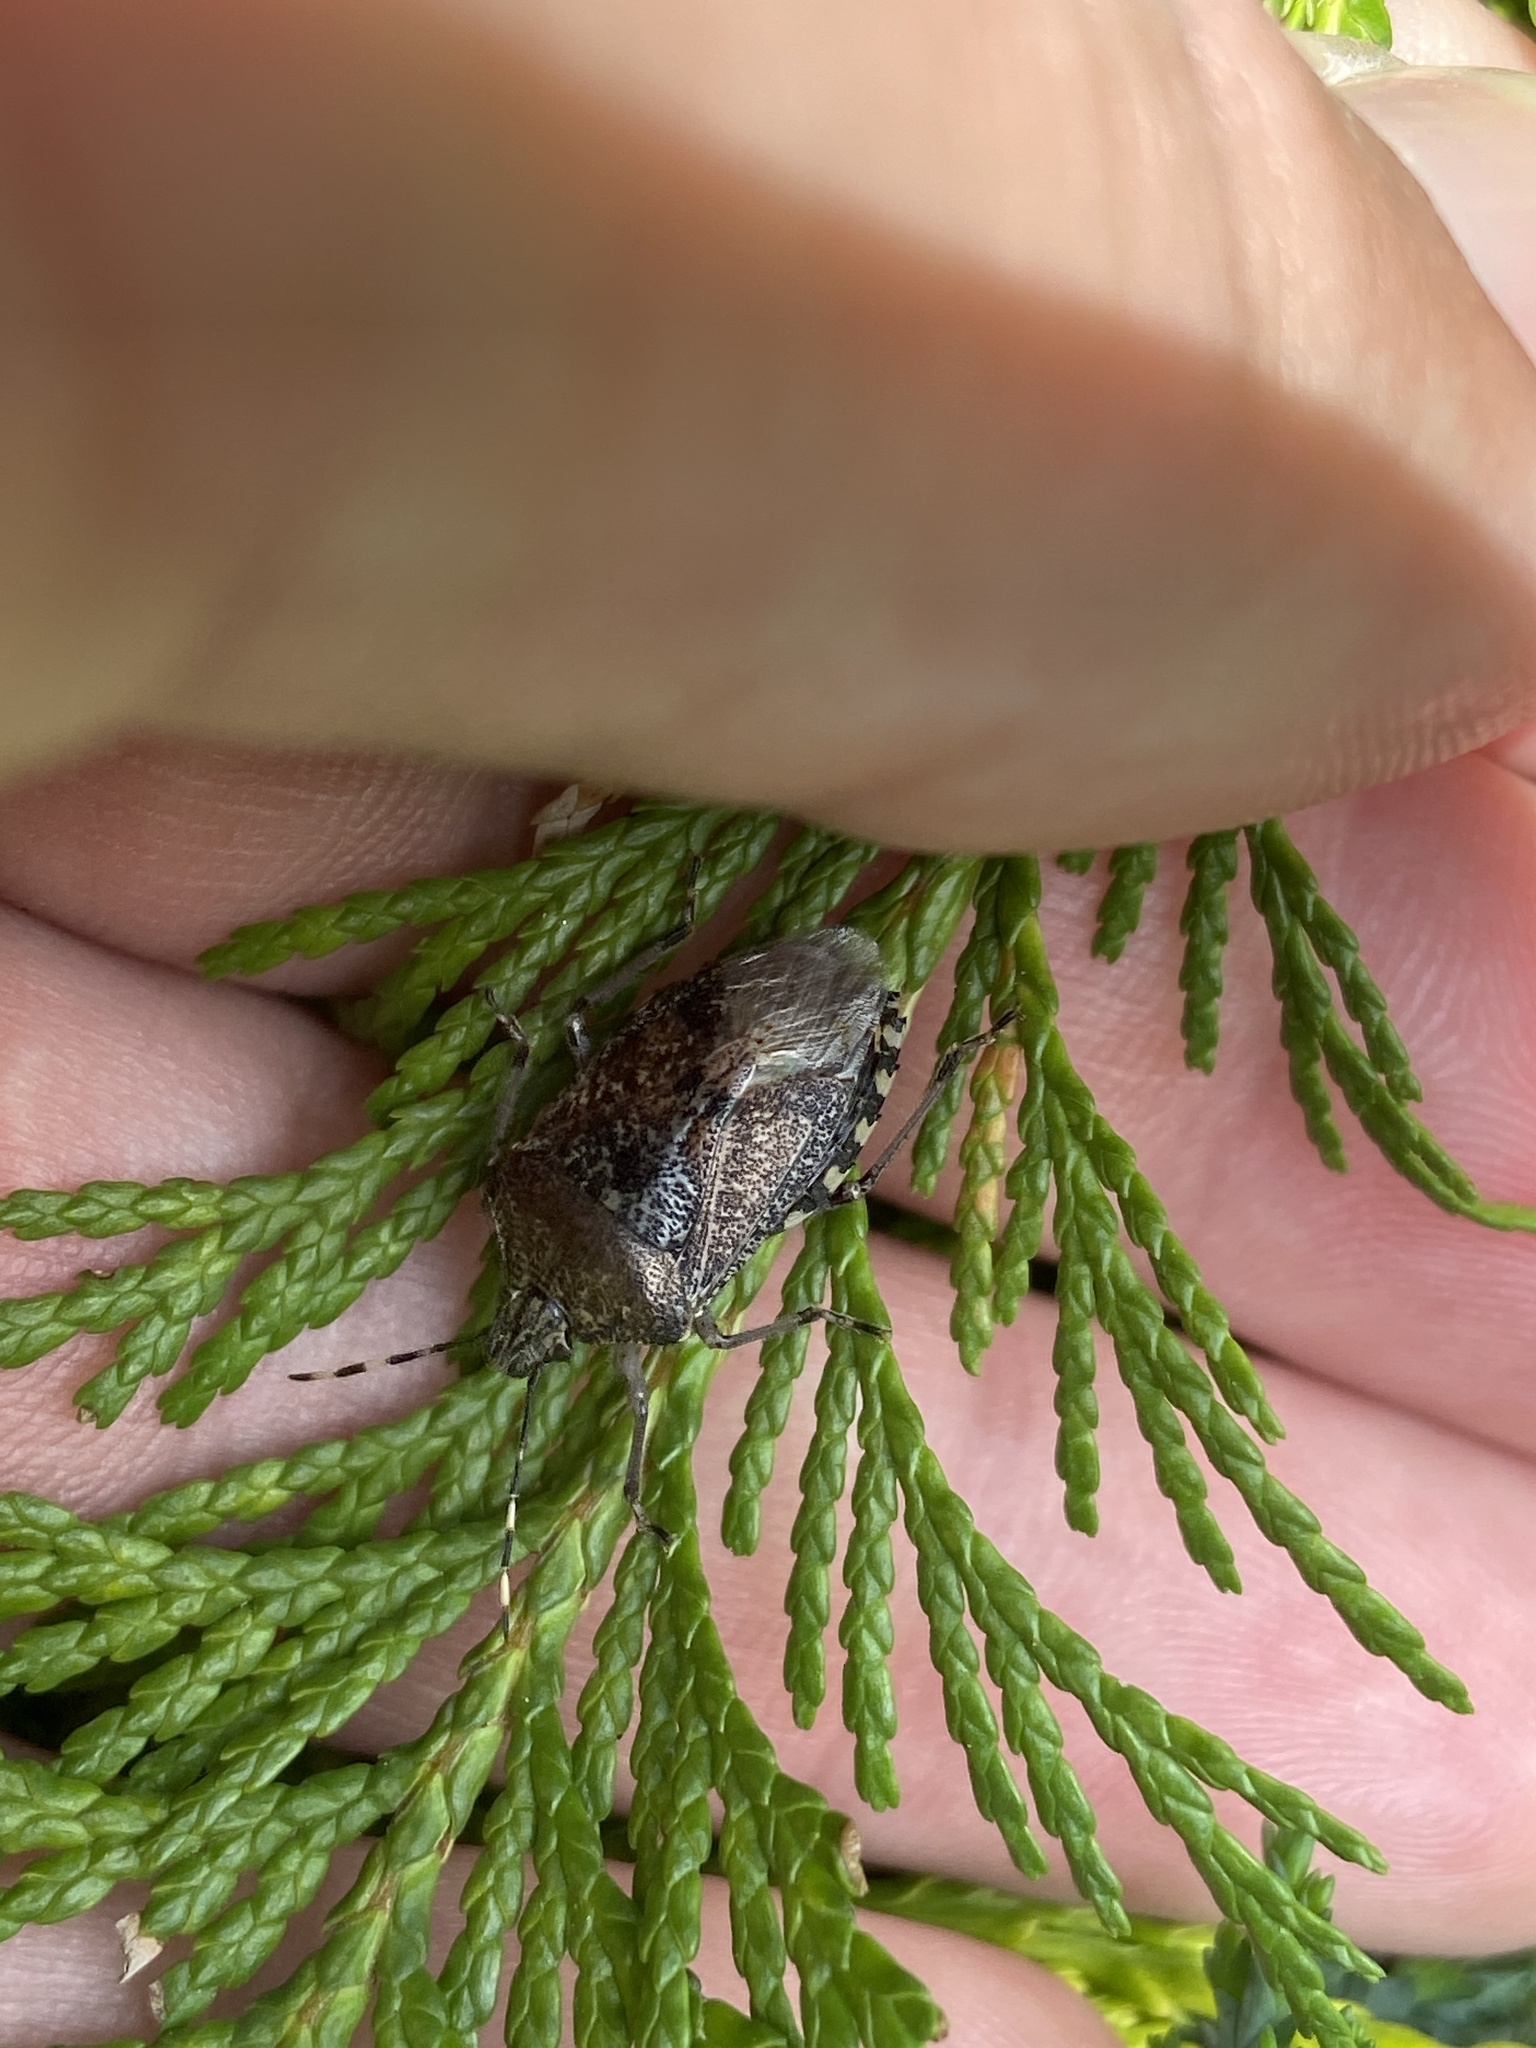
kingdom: Animalia
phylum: Arthropoda
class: Insecta
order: Hemiptera
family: Pentatomidae
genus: Rhaphigaster
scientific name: Rhaphigaster nebulosa
